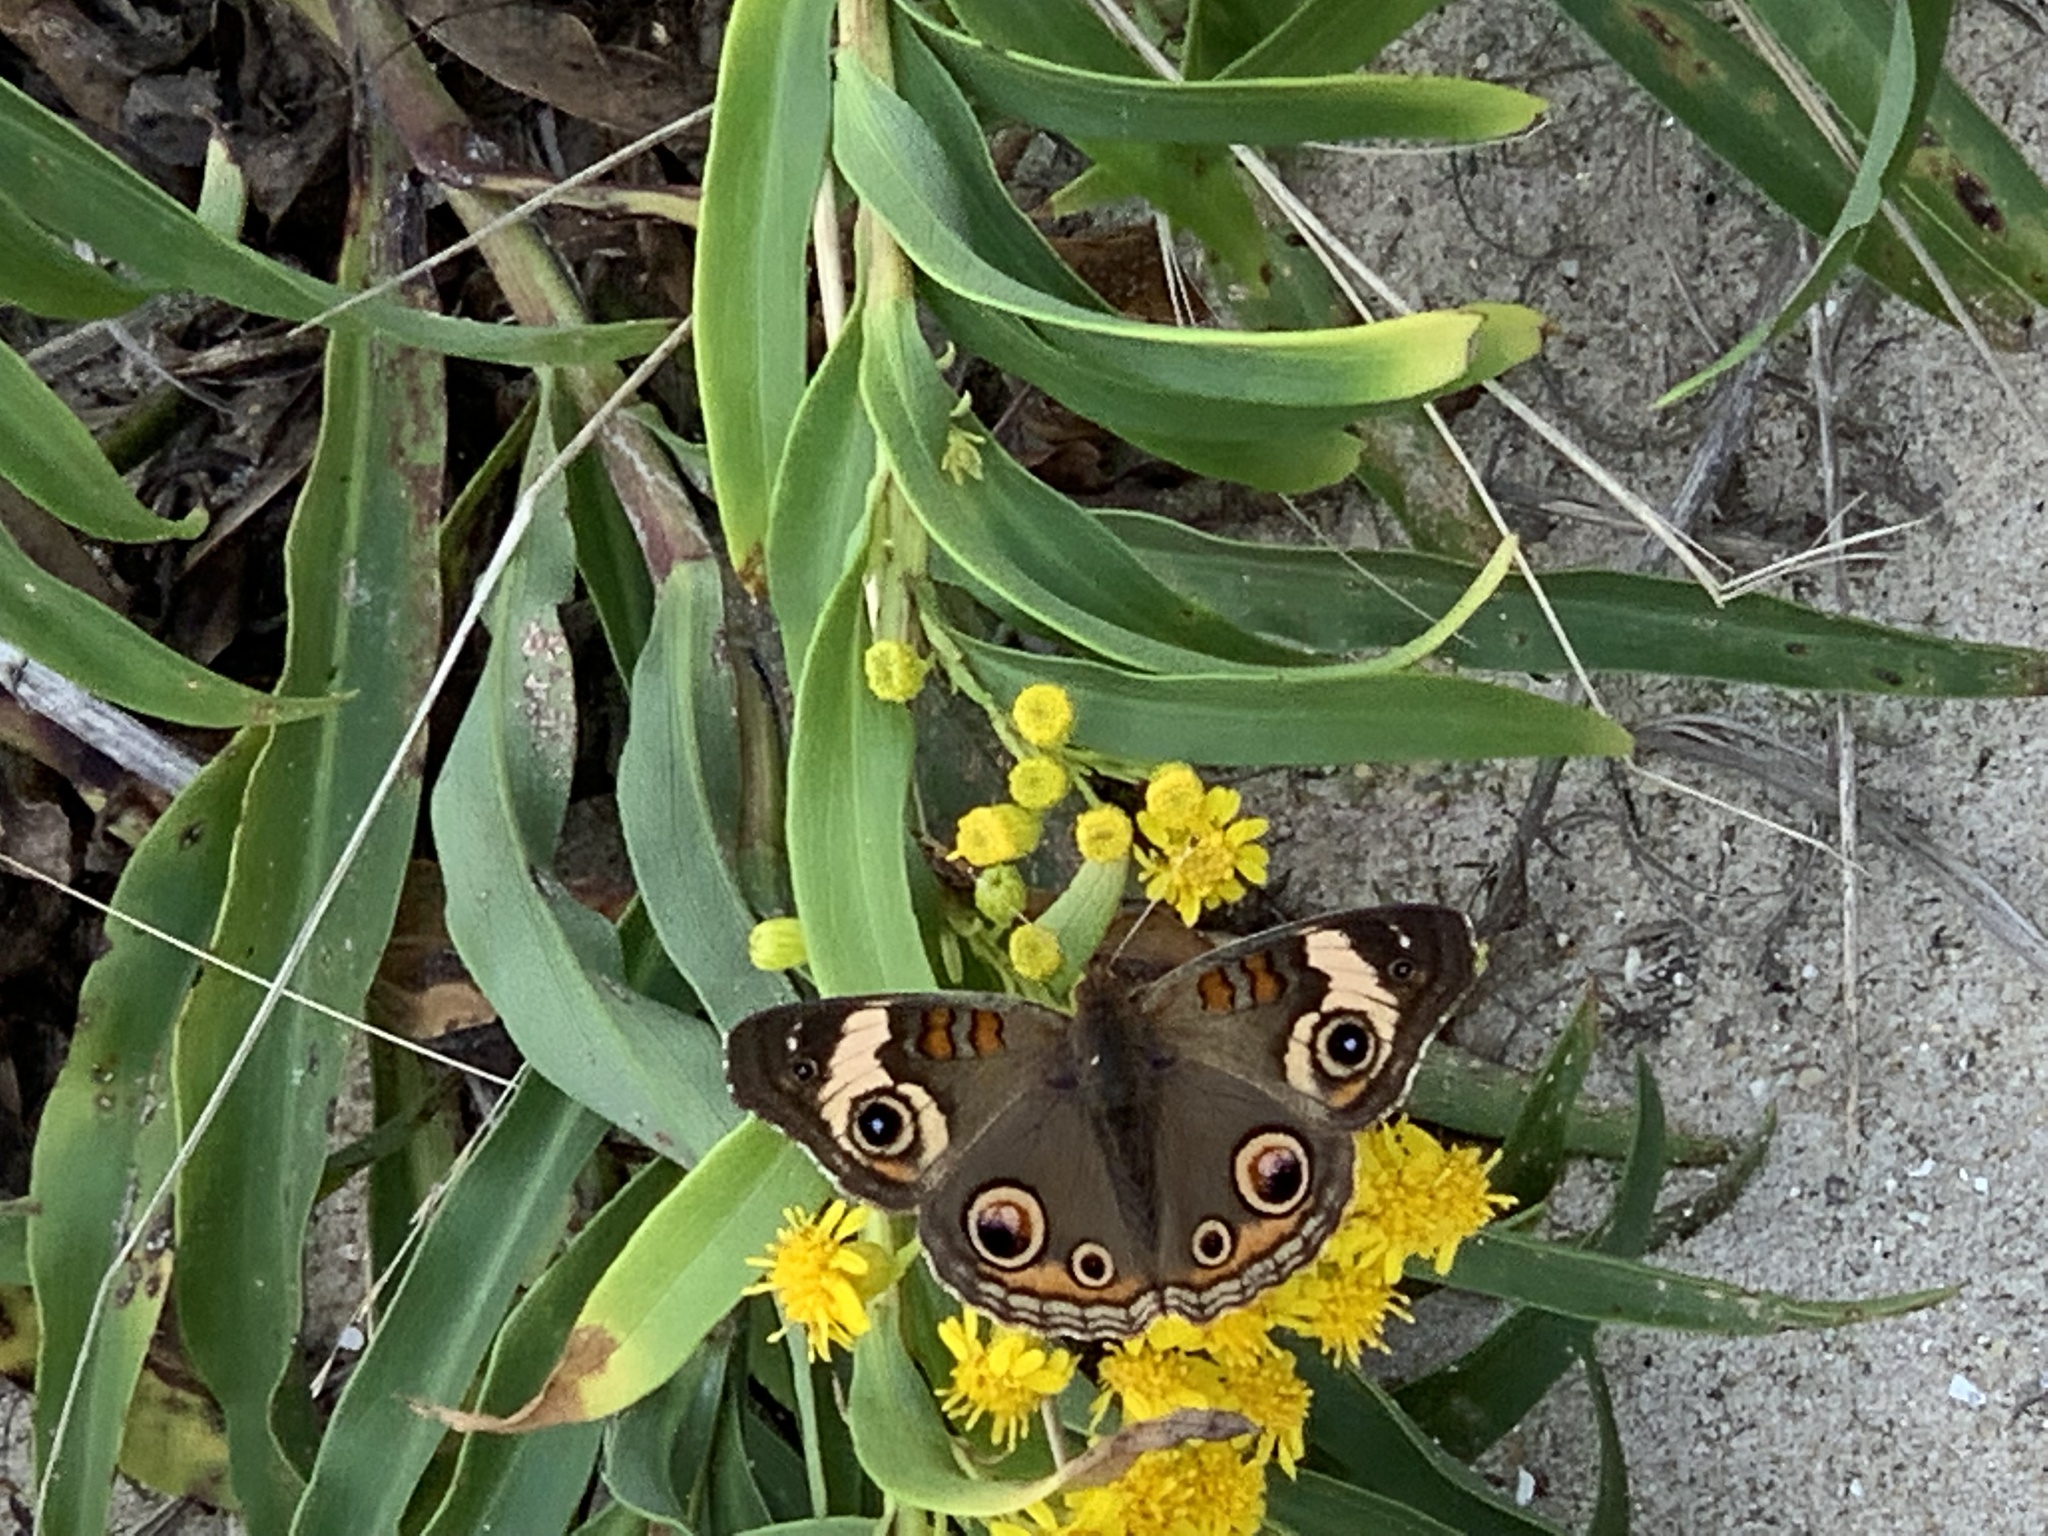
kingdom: Animalia
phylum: Arthropoda
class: Insecta
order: Lepidoptera
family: Nymphalidae
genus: Junonia
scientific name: Junonia coenia
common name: Common buckeye
